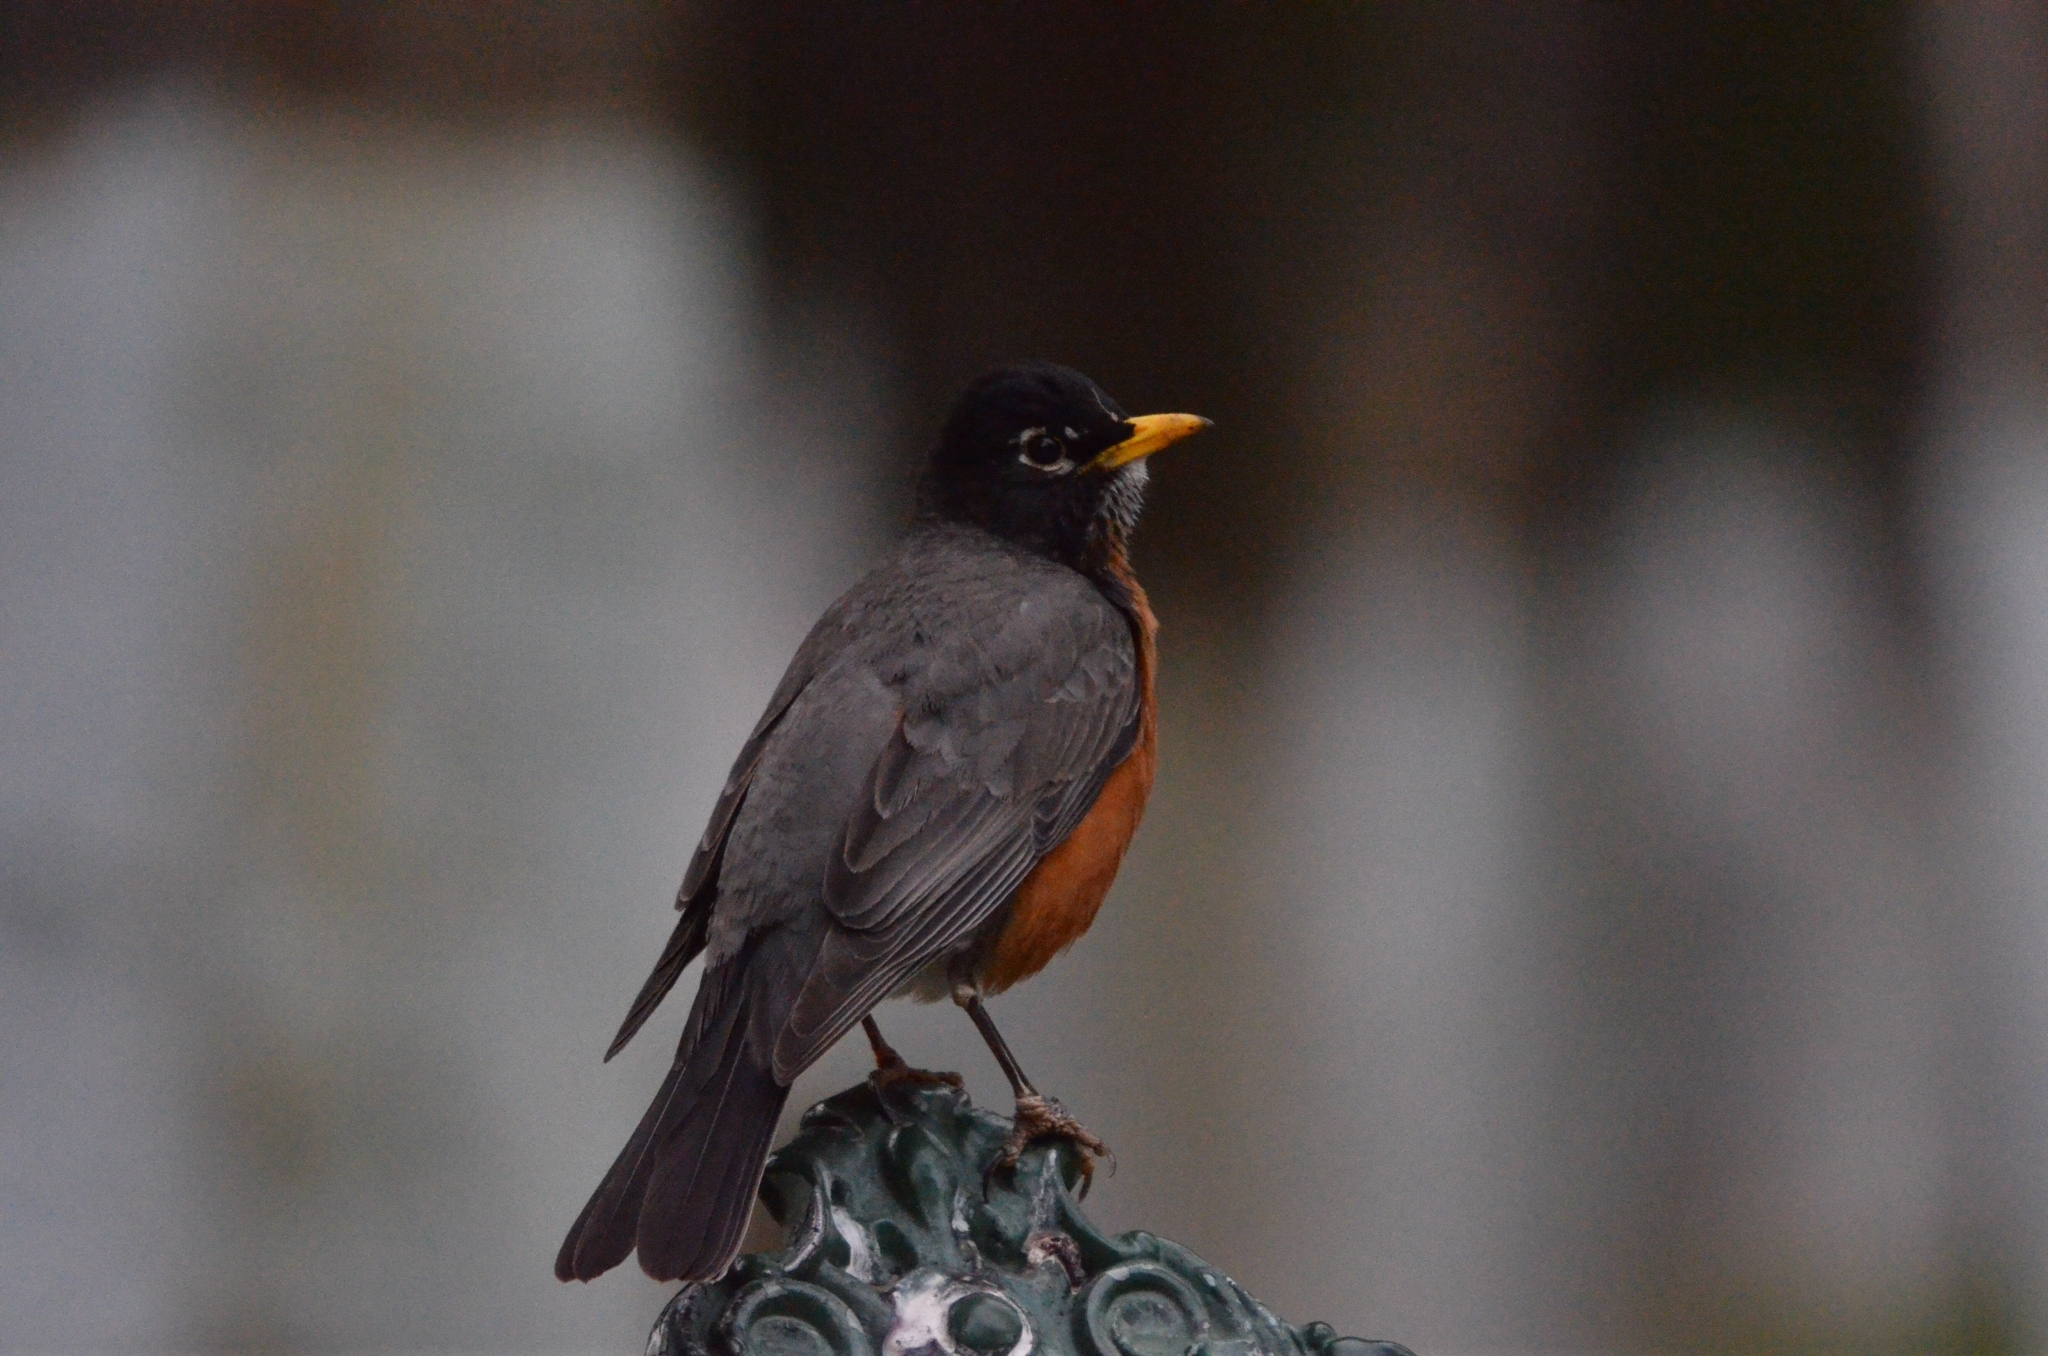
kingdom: Animalia
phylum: Chordata
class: Aves
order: Passeriformes
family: Turdidae
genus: Turdus
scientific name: Turdus migratorius
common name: American robin
